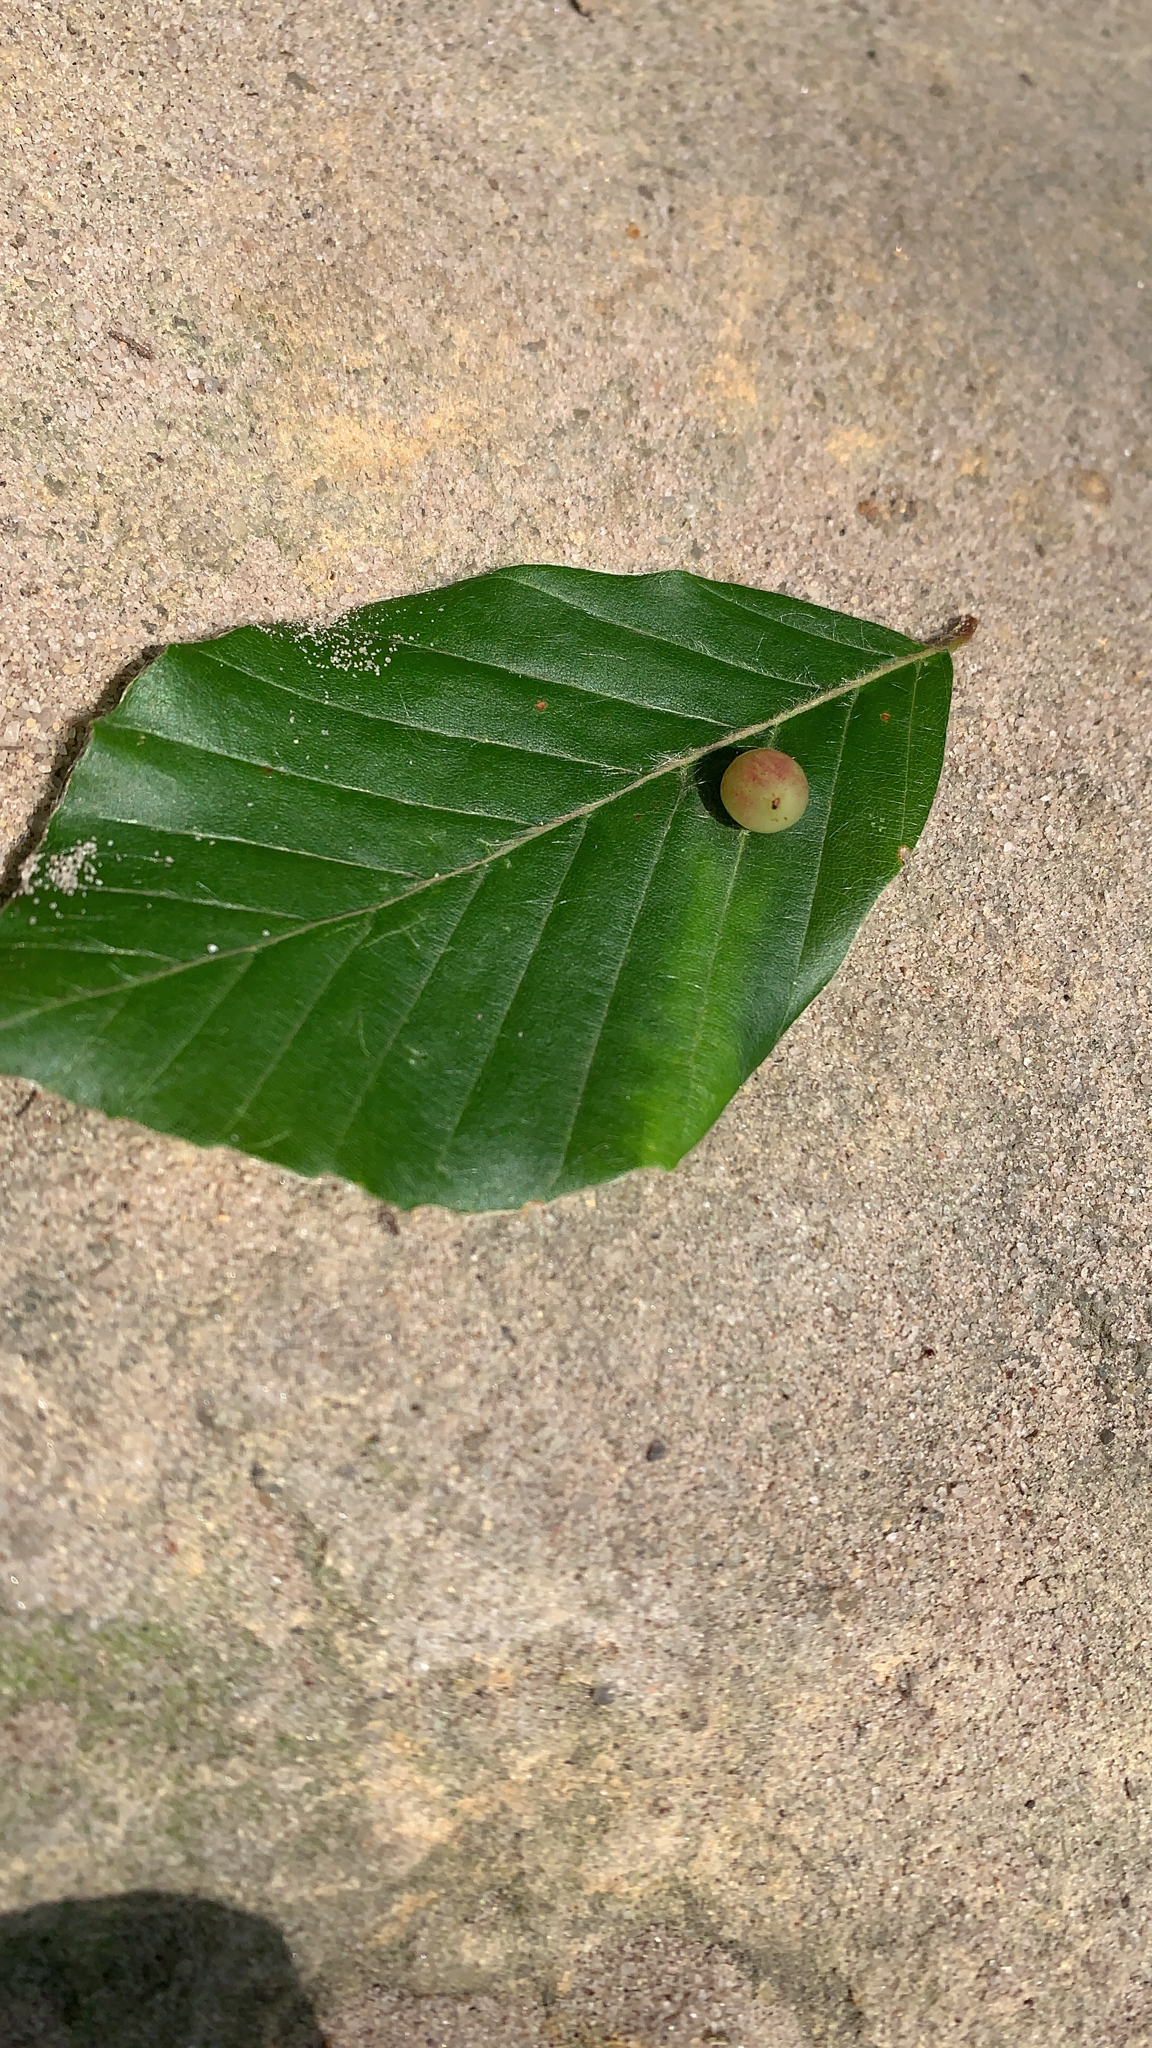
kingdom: Animalia
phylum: Arthropoda
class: Insecta
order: Diptera
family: Cecidomyiidae
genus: Mikiola
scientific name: Mikiola fagi
